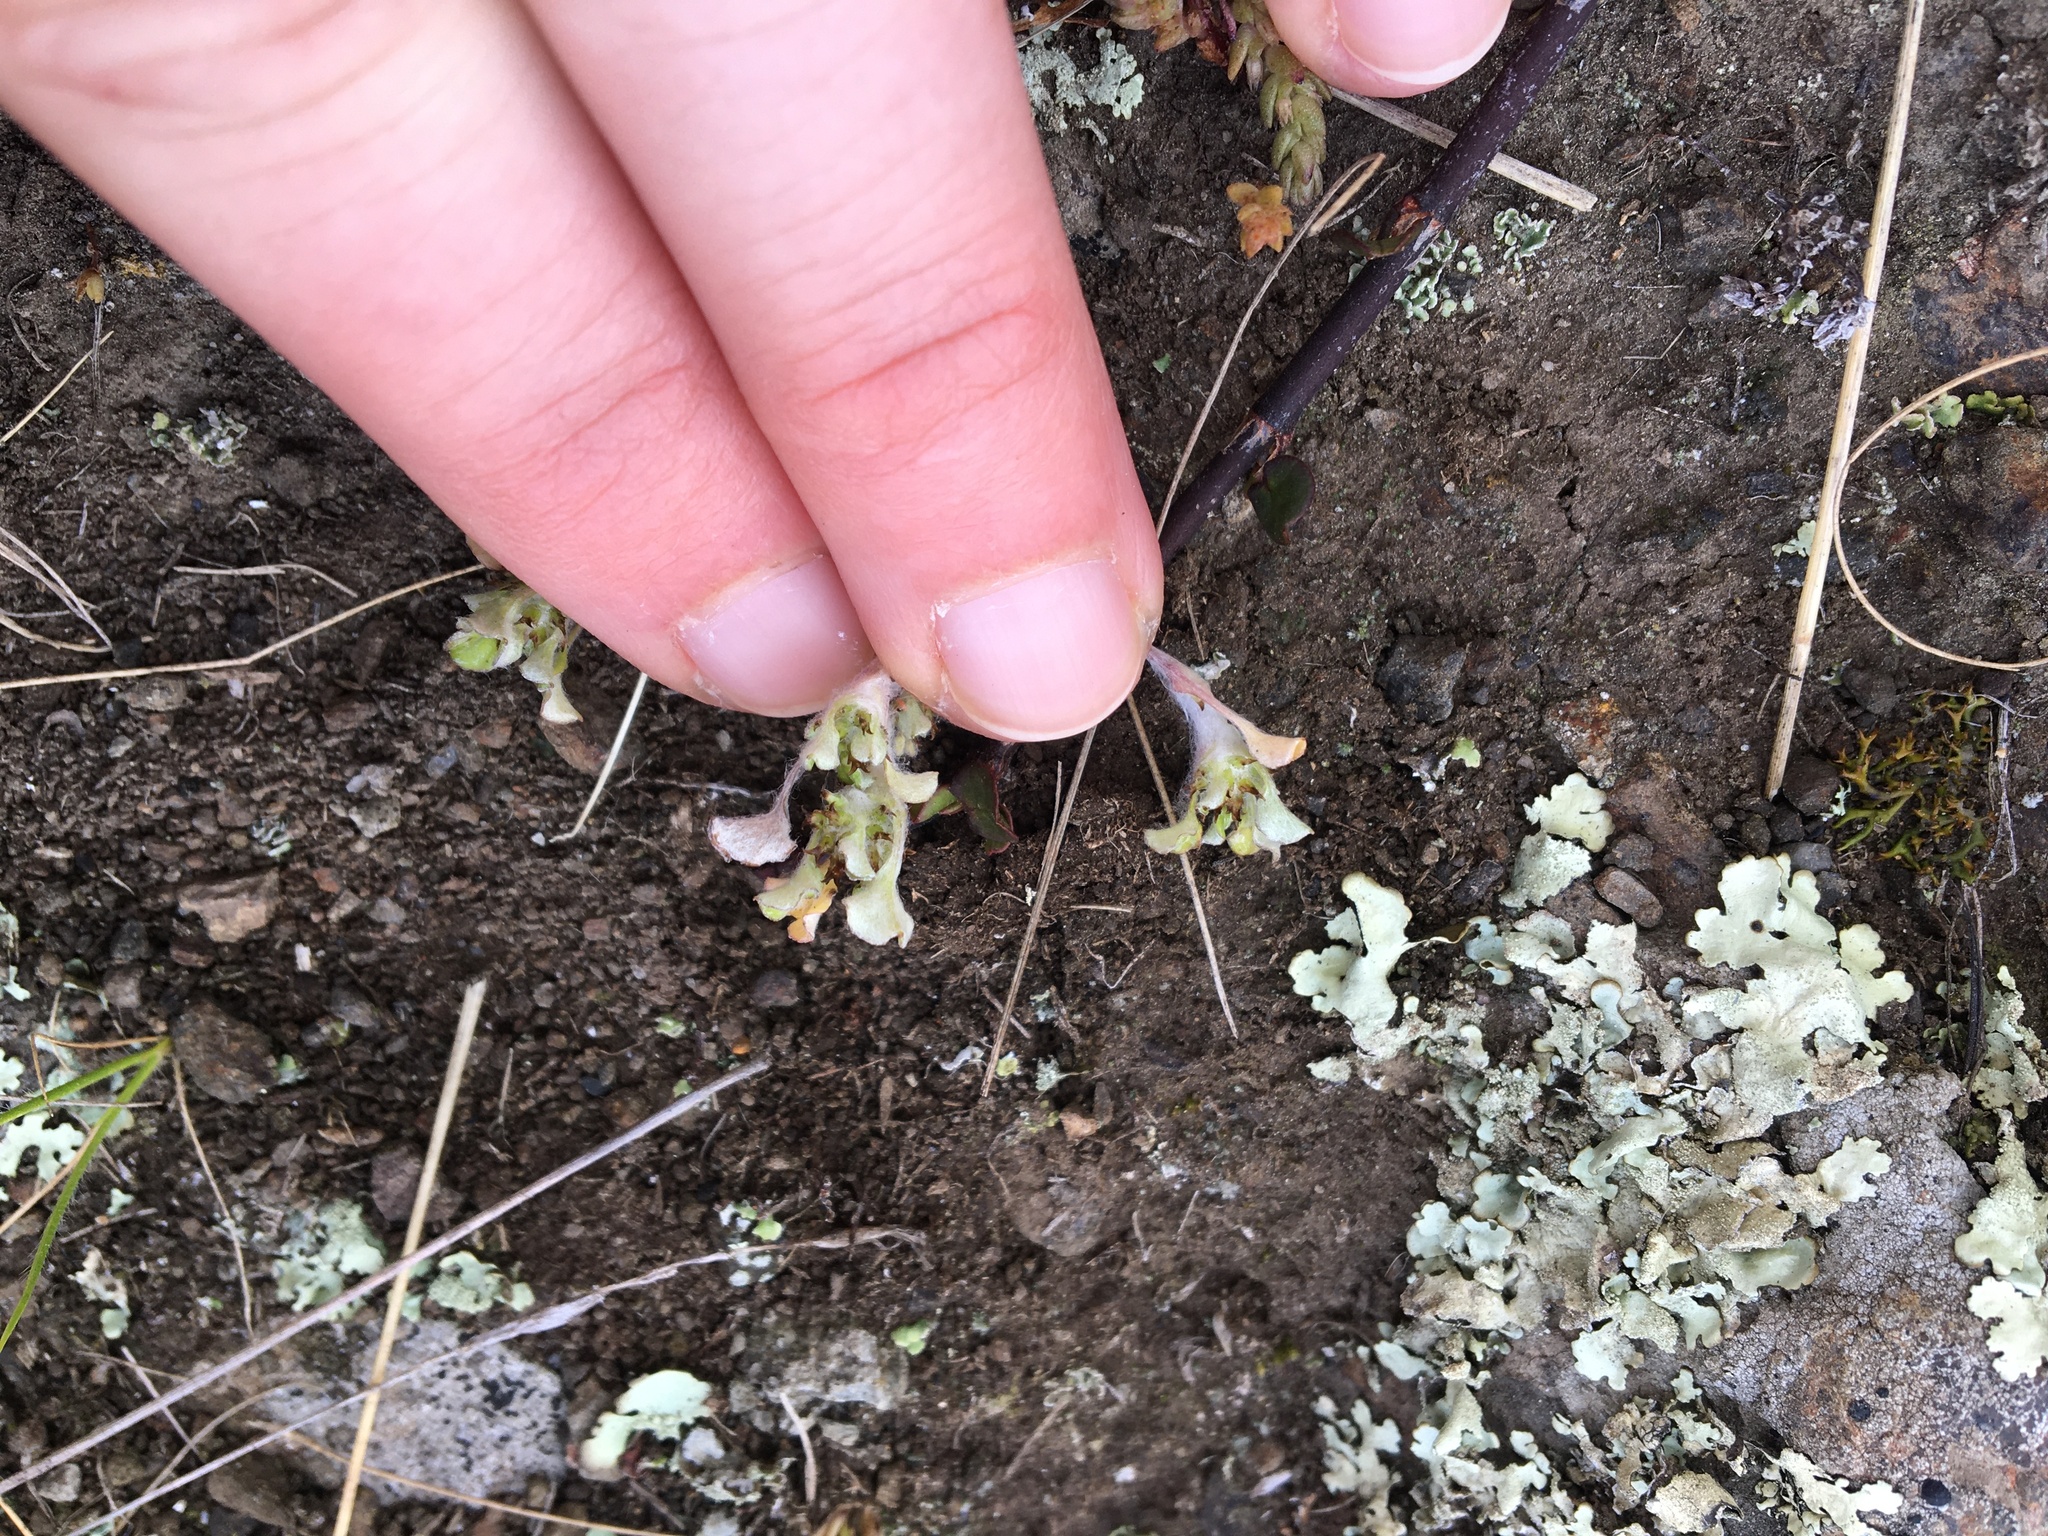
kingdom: Plantae
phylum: Tracheophyta
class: Magnoliopsida
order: Asterales
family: Asteraceae
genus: Stuartina
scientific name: Stuartina muelleri
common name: Spoon-leaved cudweed
